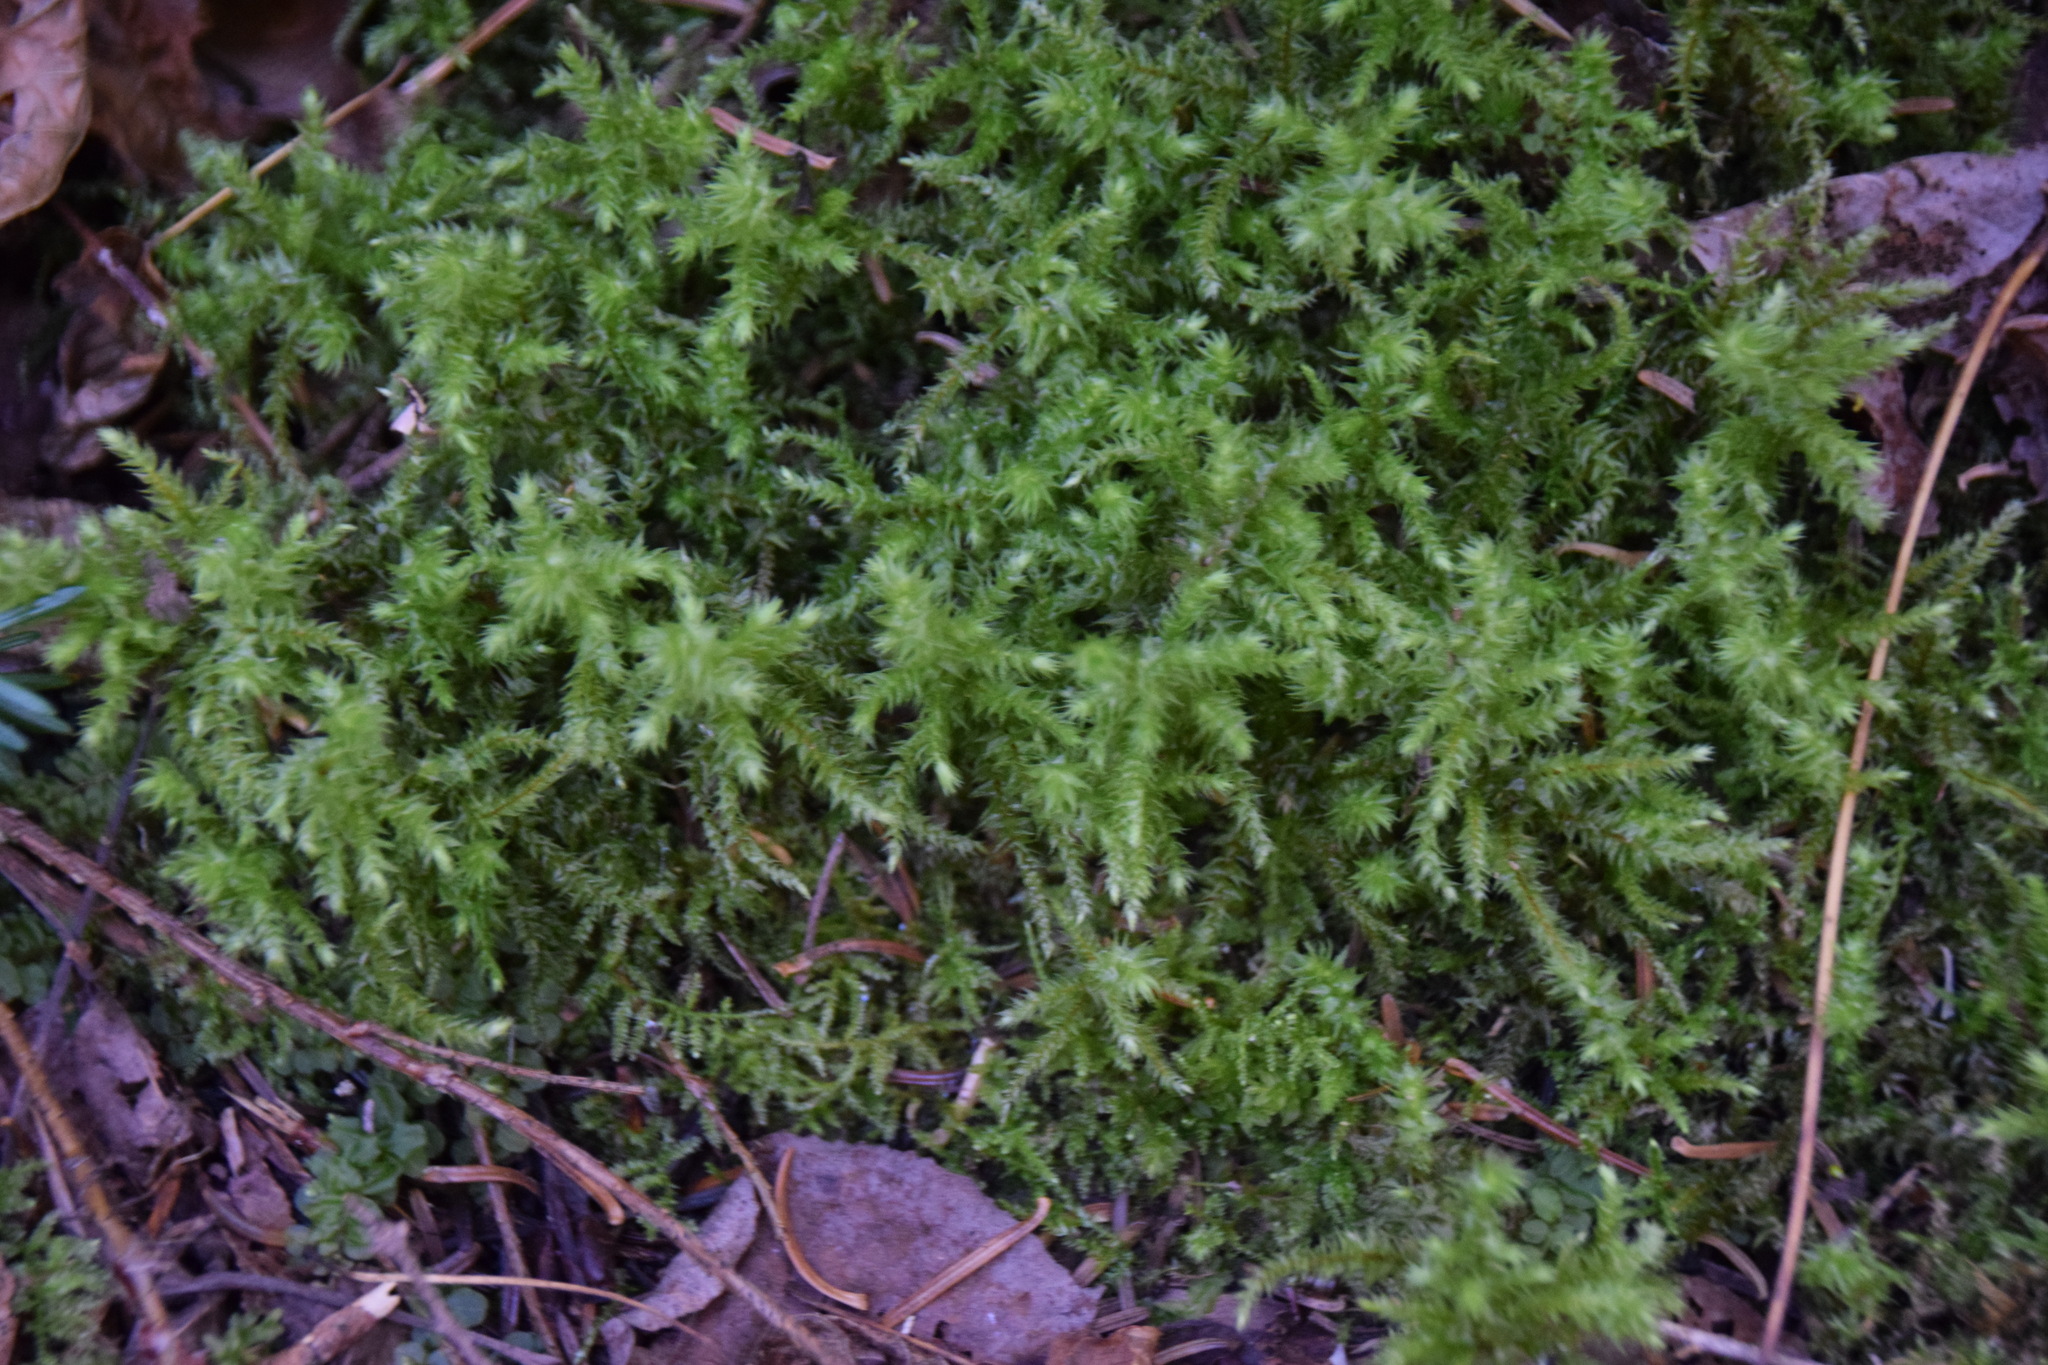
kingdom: Plantae
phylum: Bryophyta
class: Bryopsida
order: Hypnales
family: Hylocomiaceae
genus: Hylocomiadelphus
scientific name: Hylocomiadelphus triquetrus
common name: Rough goose neck moss
